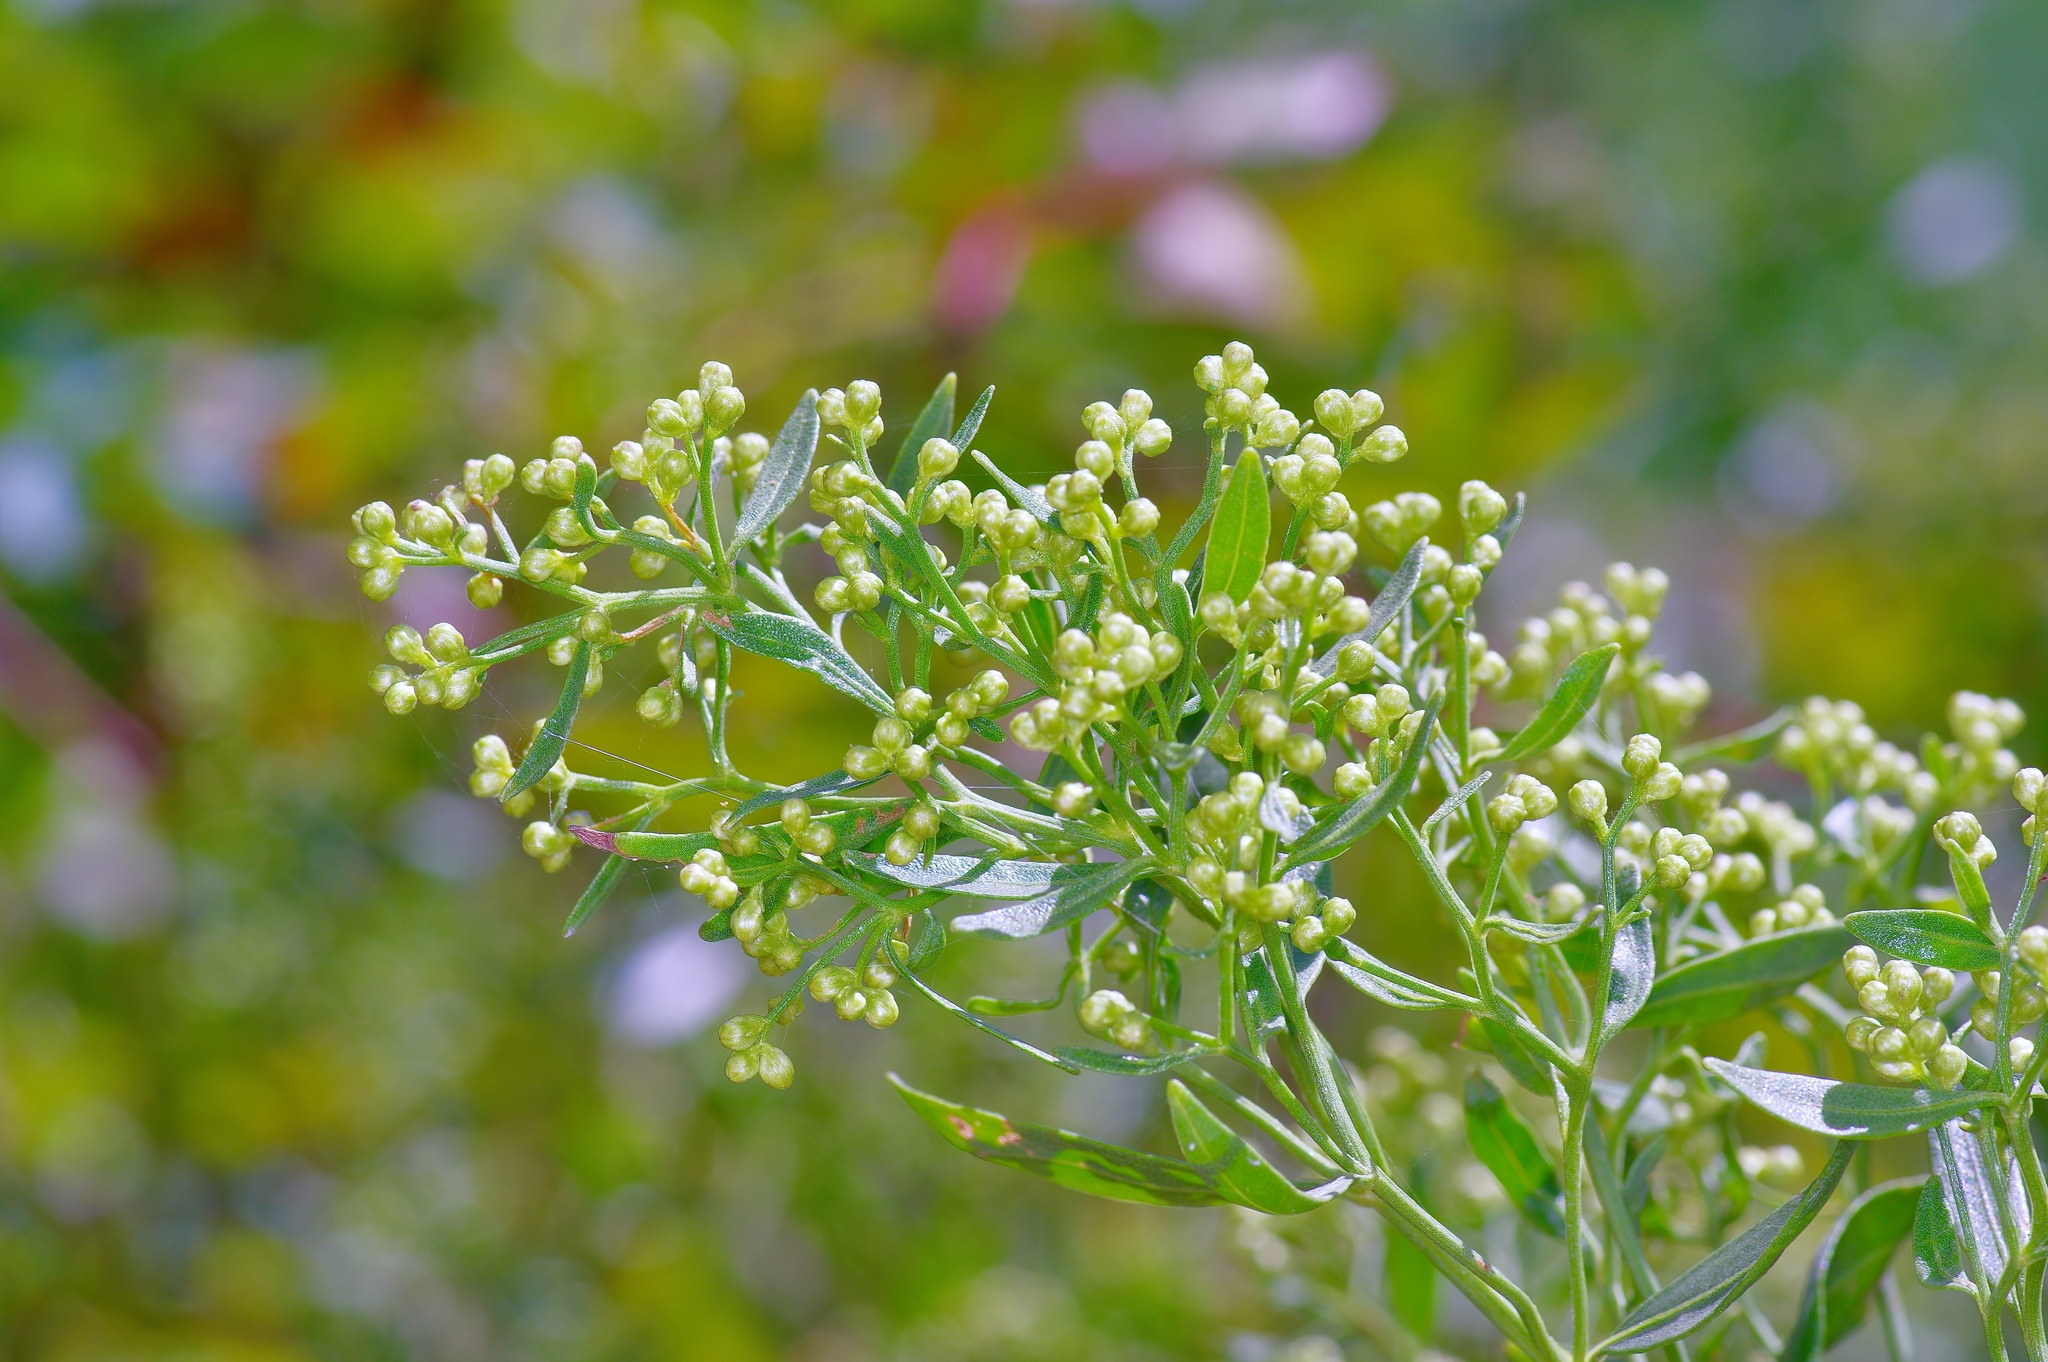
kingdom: Plantae
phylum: Tracheophyta
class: Magnoliopsida
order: Asterales
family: Asteraceae
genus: Baccharis
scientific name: Baccharis halimifolia
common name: Eastern baccharis
